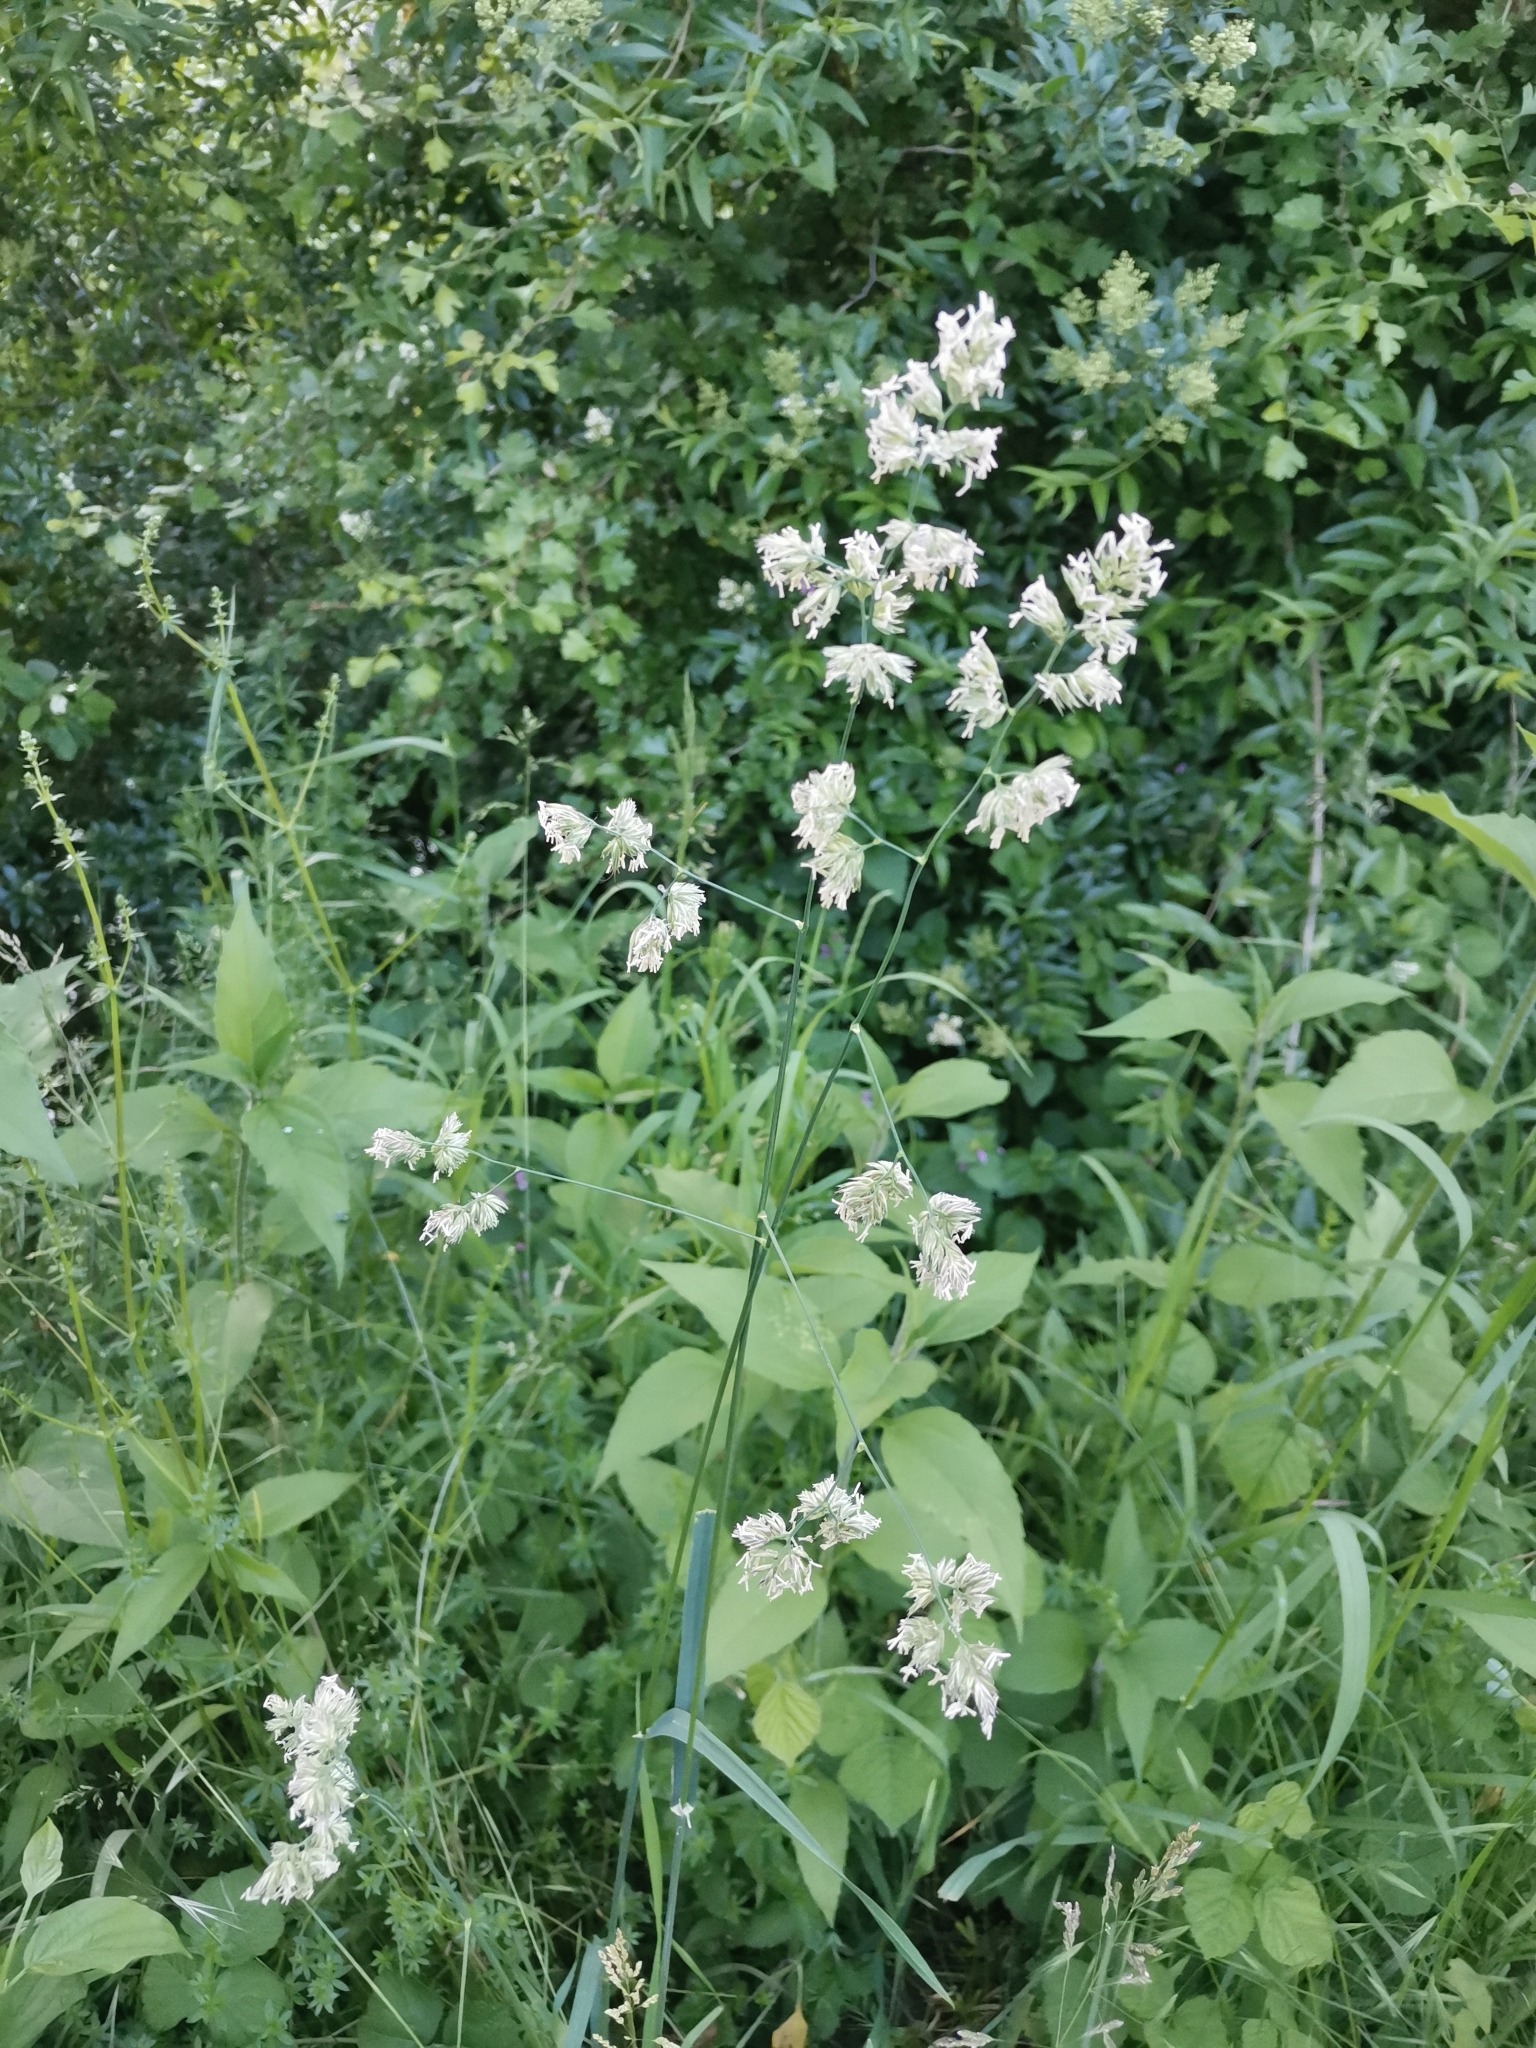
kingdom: Plantae
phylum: Tracheophyta
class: Liliopsida
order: Poales
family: Poaceae
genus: Dactylis
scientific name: Dactylis glomerata
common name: Orchardgrass
